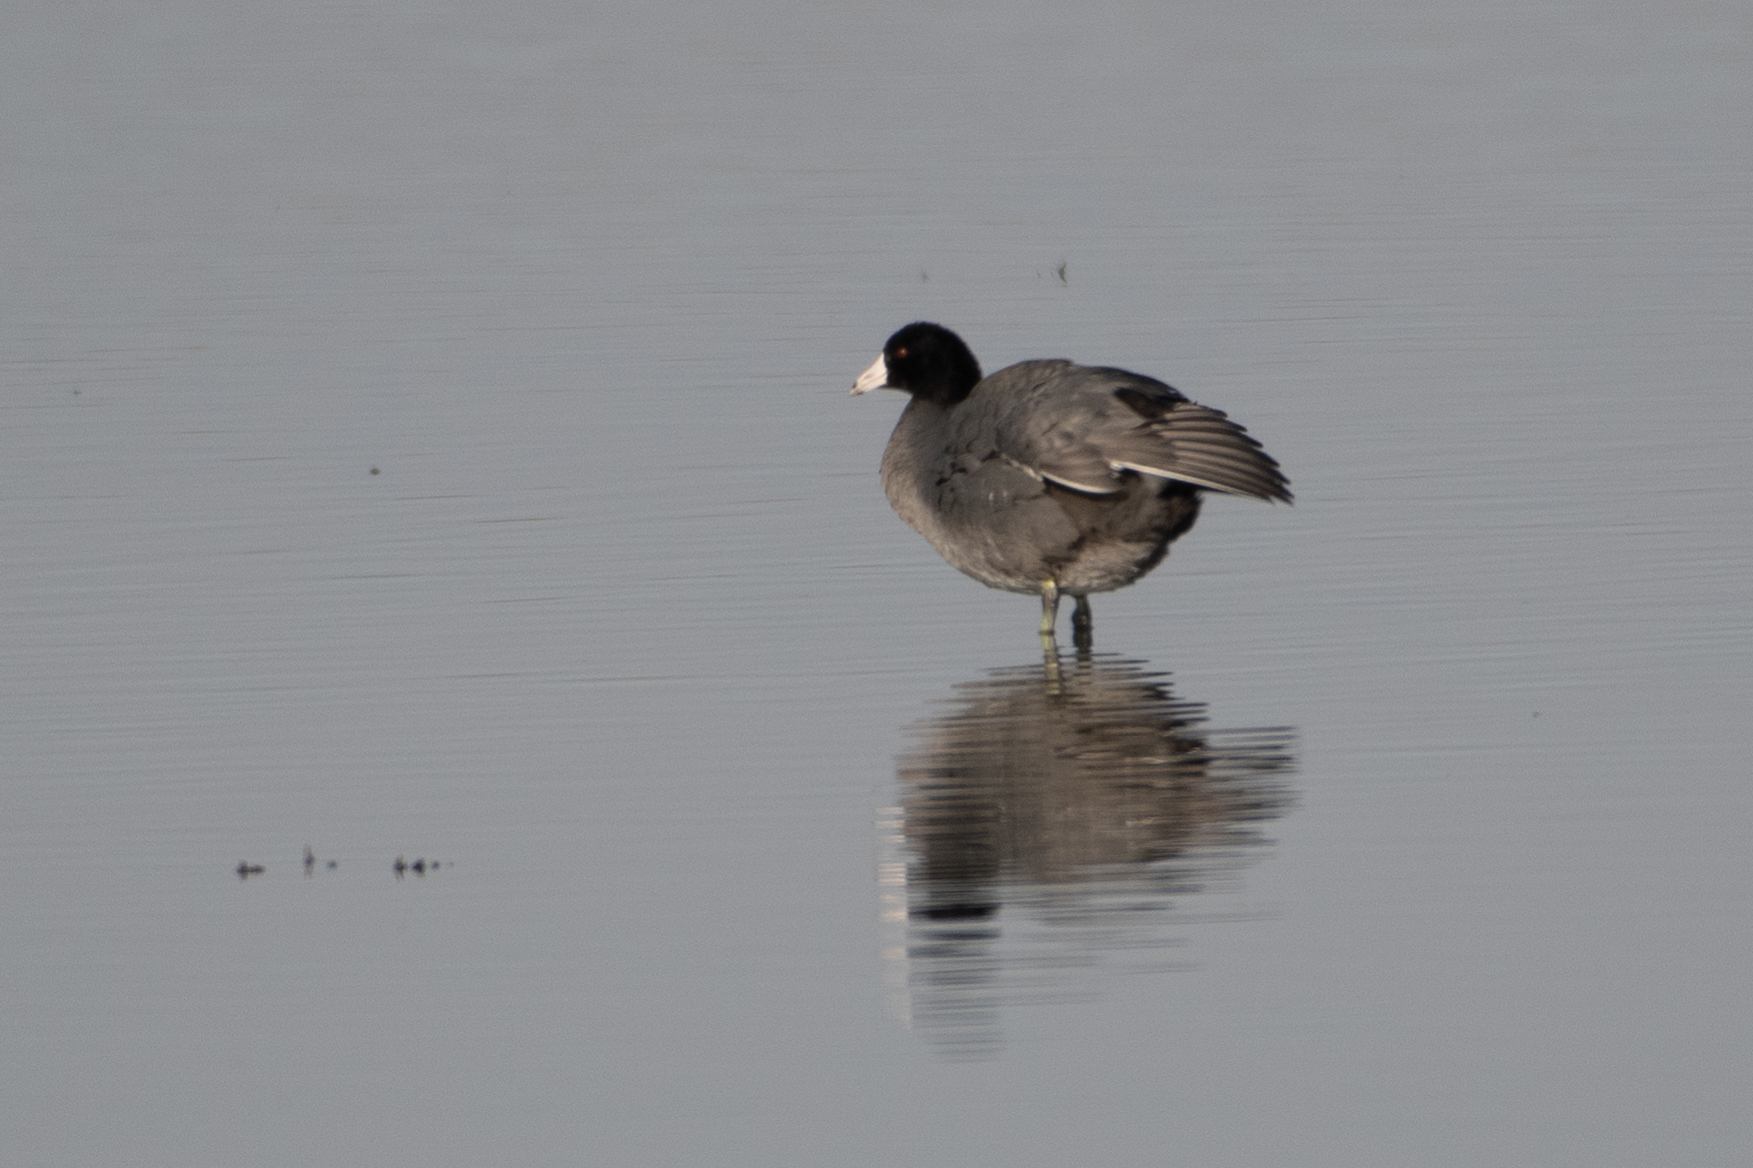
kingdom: Animalia
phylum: Chordata
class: Aves
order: Gruiformes
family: Rallidae
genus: Fulica
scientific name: Fulica americana
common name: American coot
